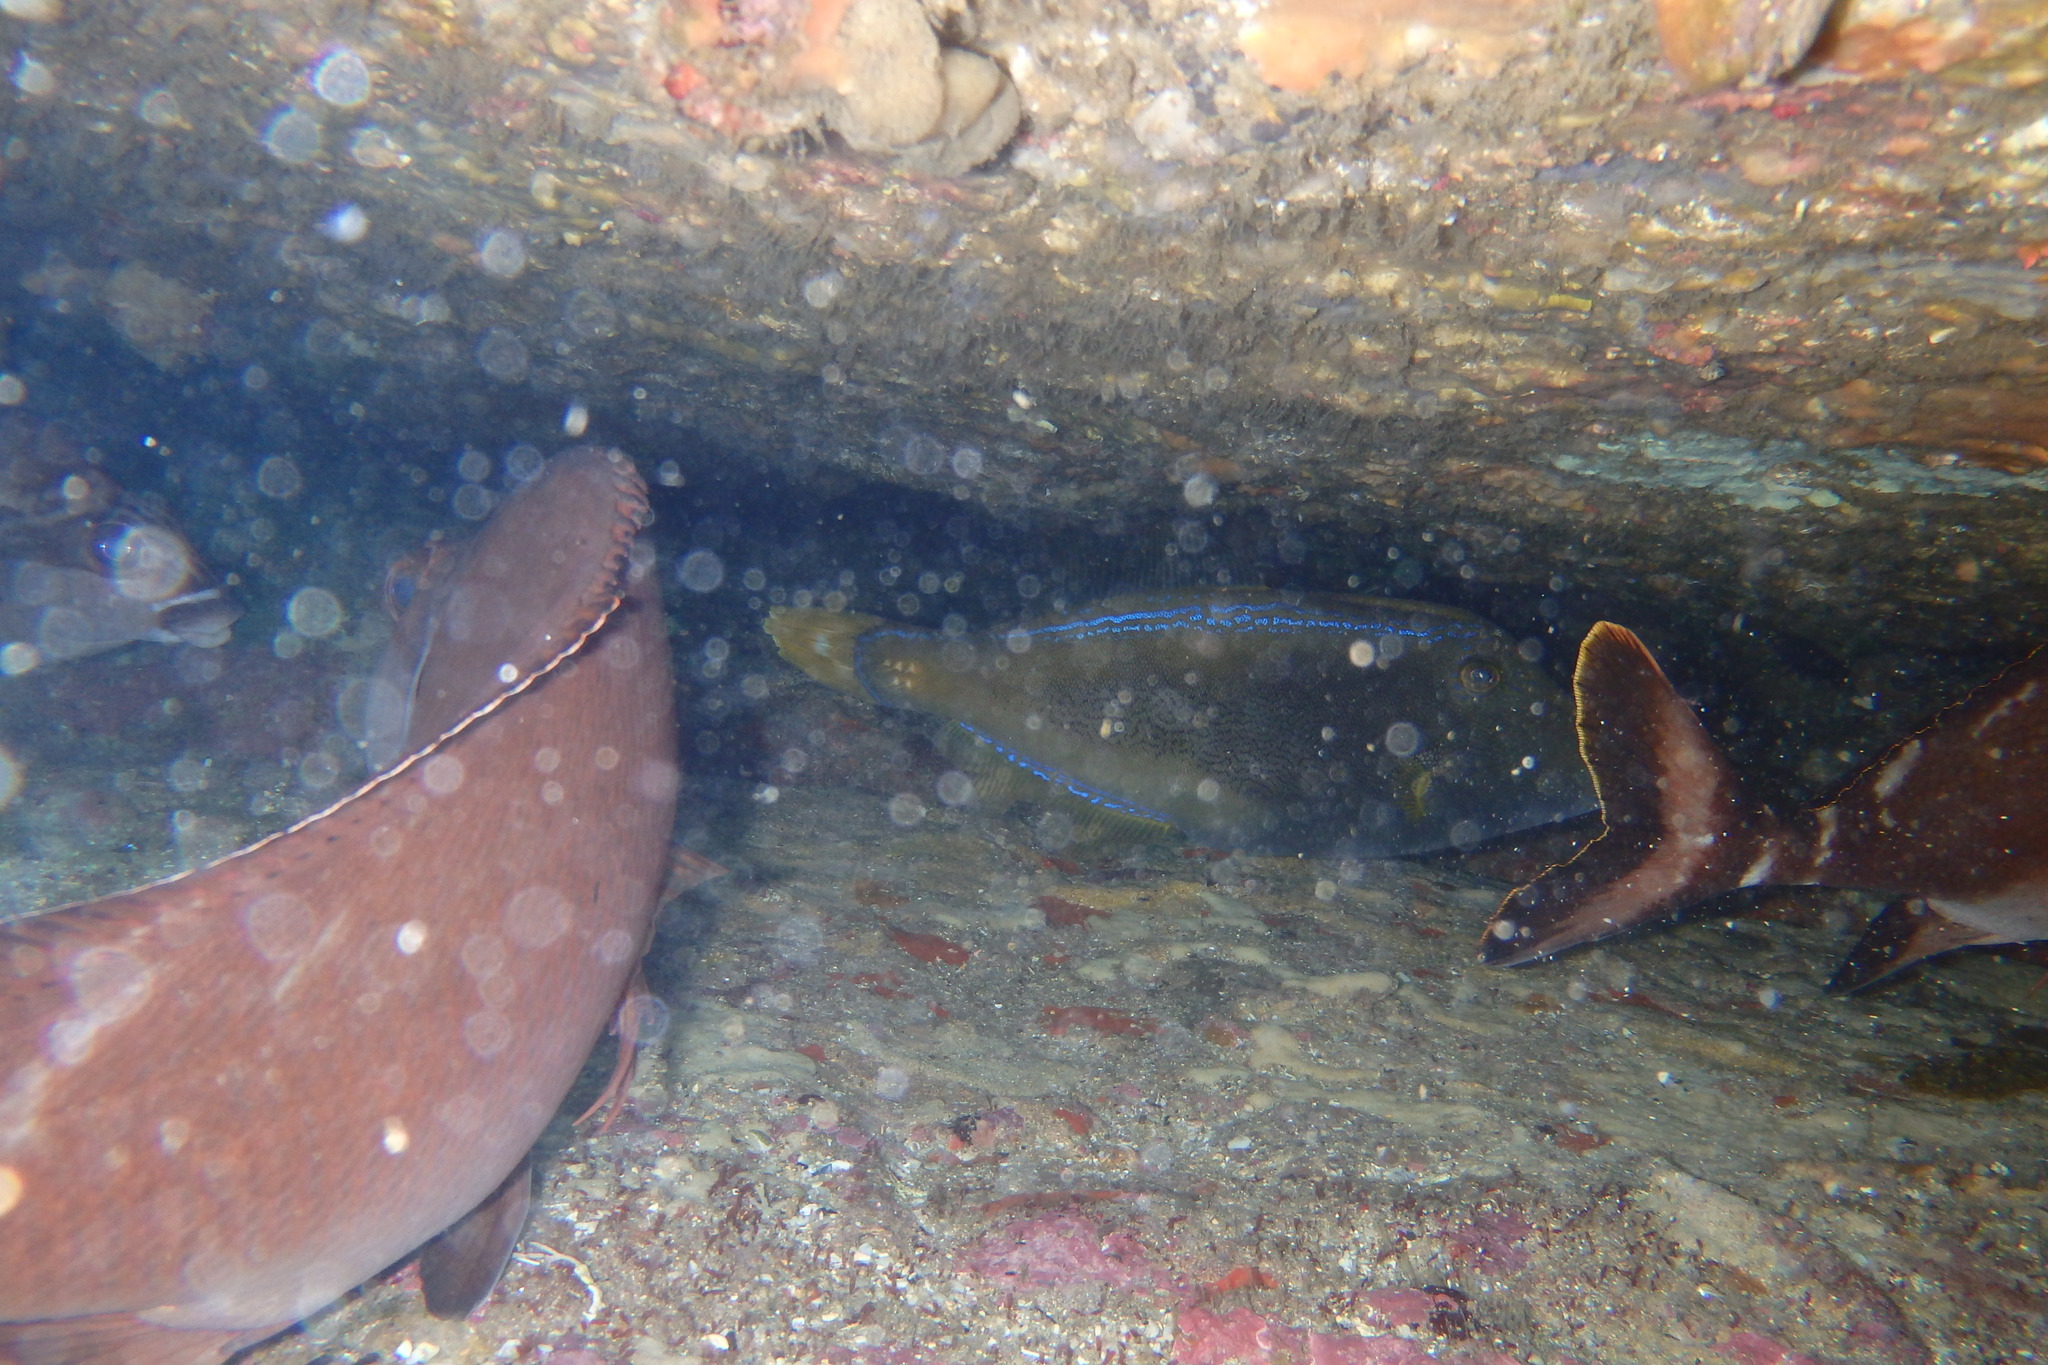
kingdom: Animalia
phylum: Chordata
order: Tetraodontiformes
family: Monacanthidae
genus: Meuschenia
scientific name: Meuschenia trachylepis
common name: Yellowfin leatherjacket
